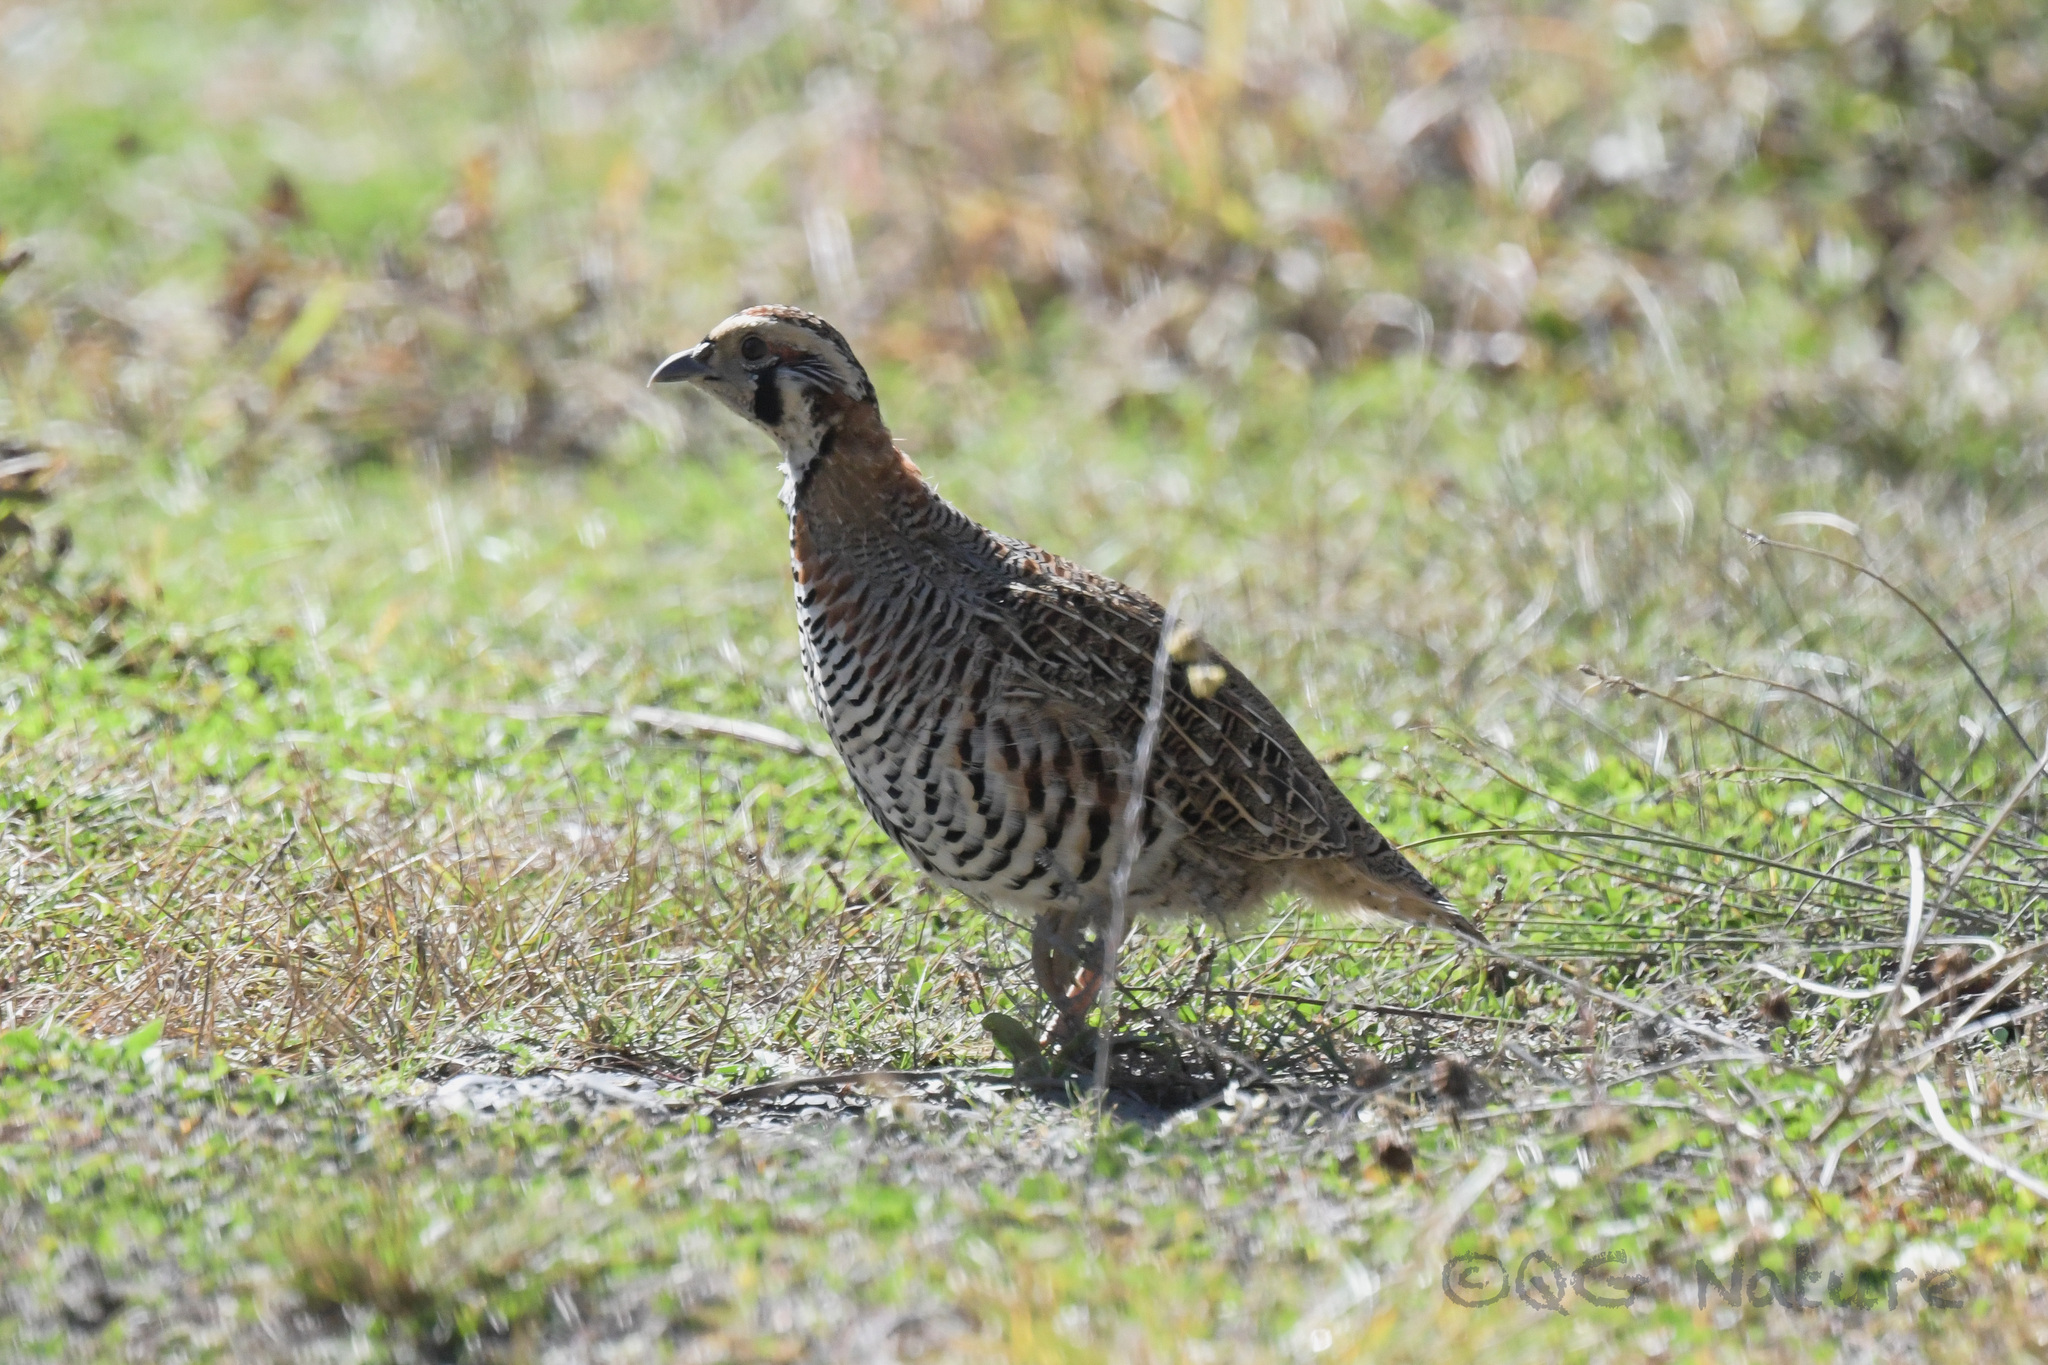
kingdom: Animalia
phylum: Chordata
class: Aves
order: Galliformes
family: Phasianidae
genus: Perdix
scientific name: Perdix hodgsoniae
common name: Tibetan partridge
